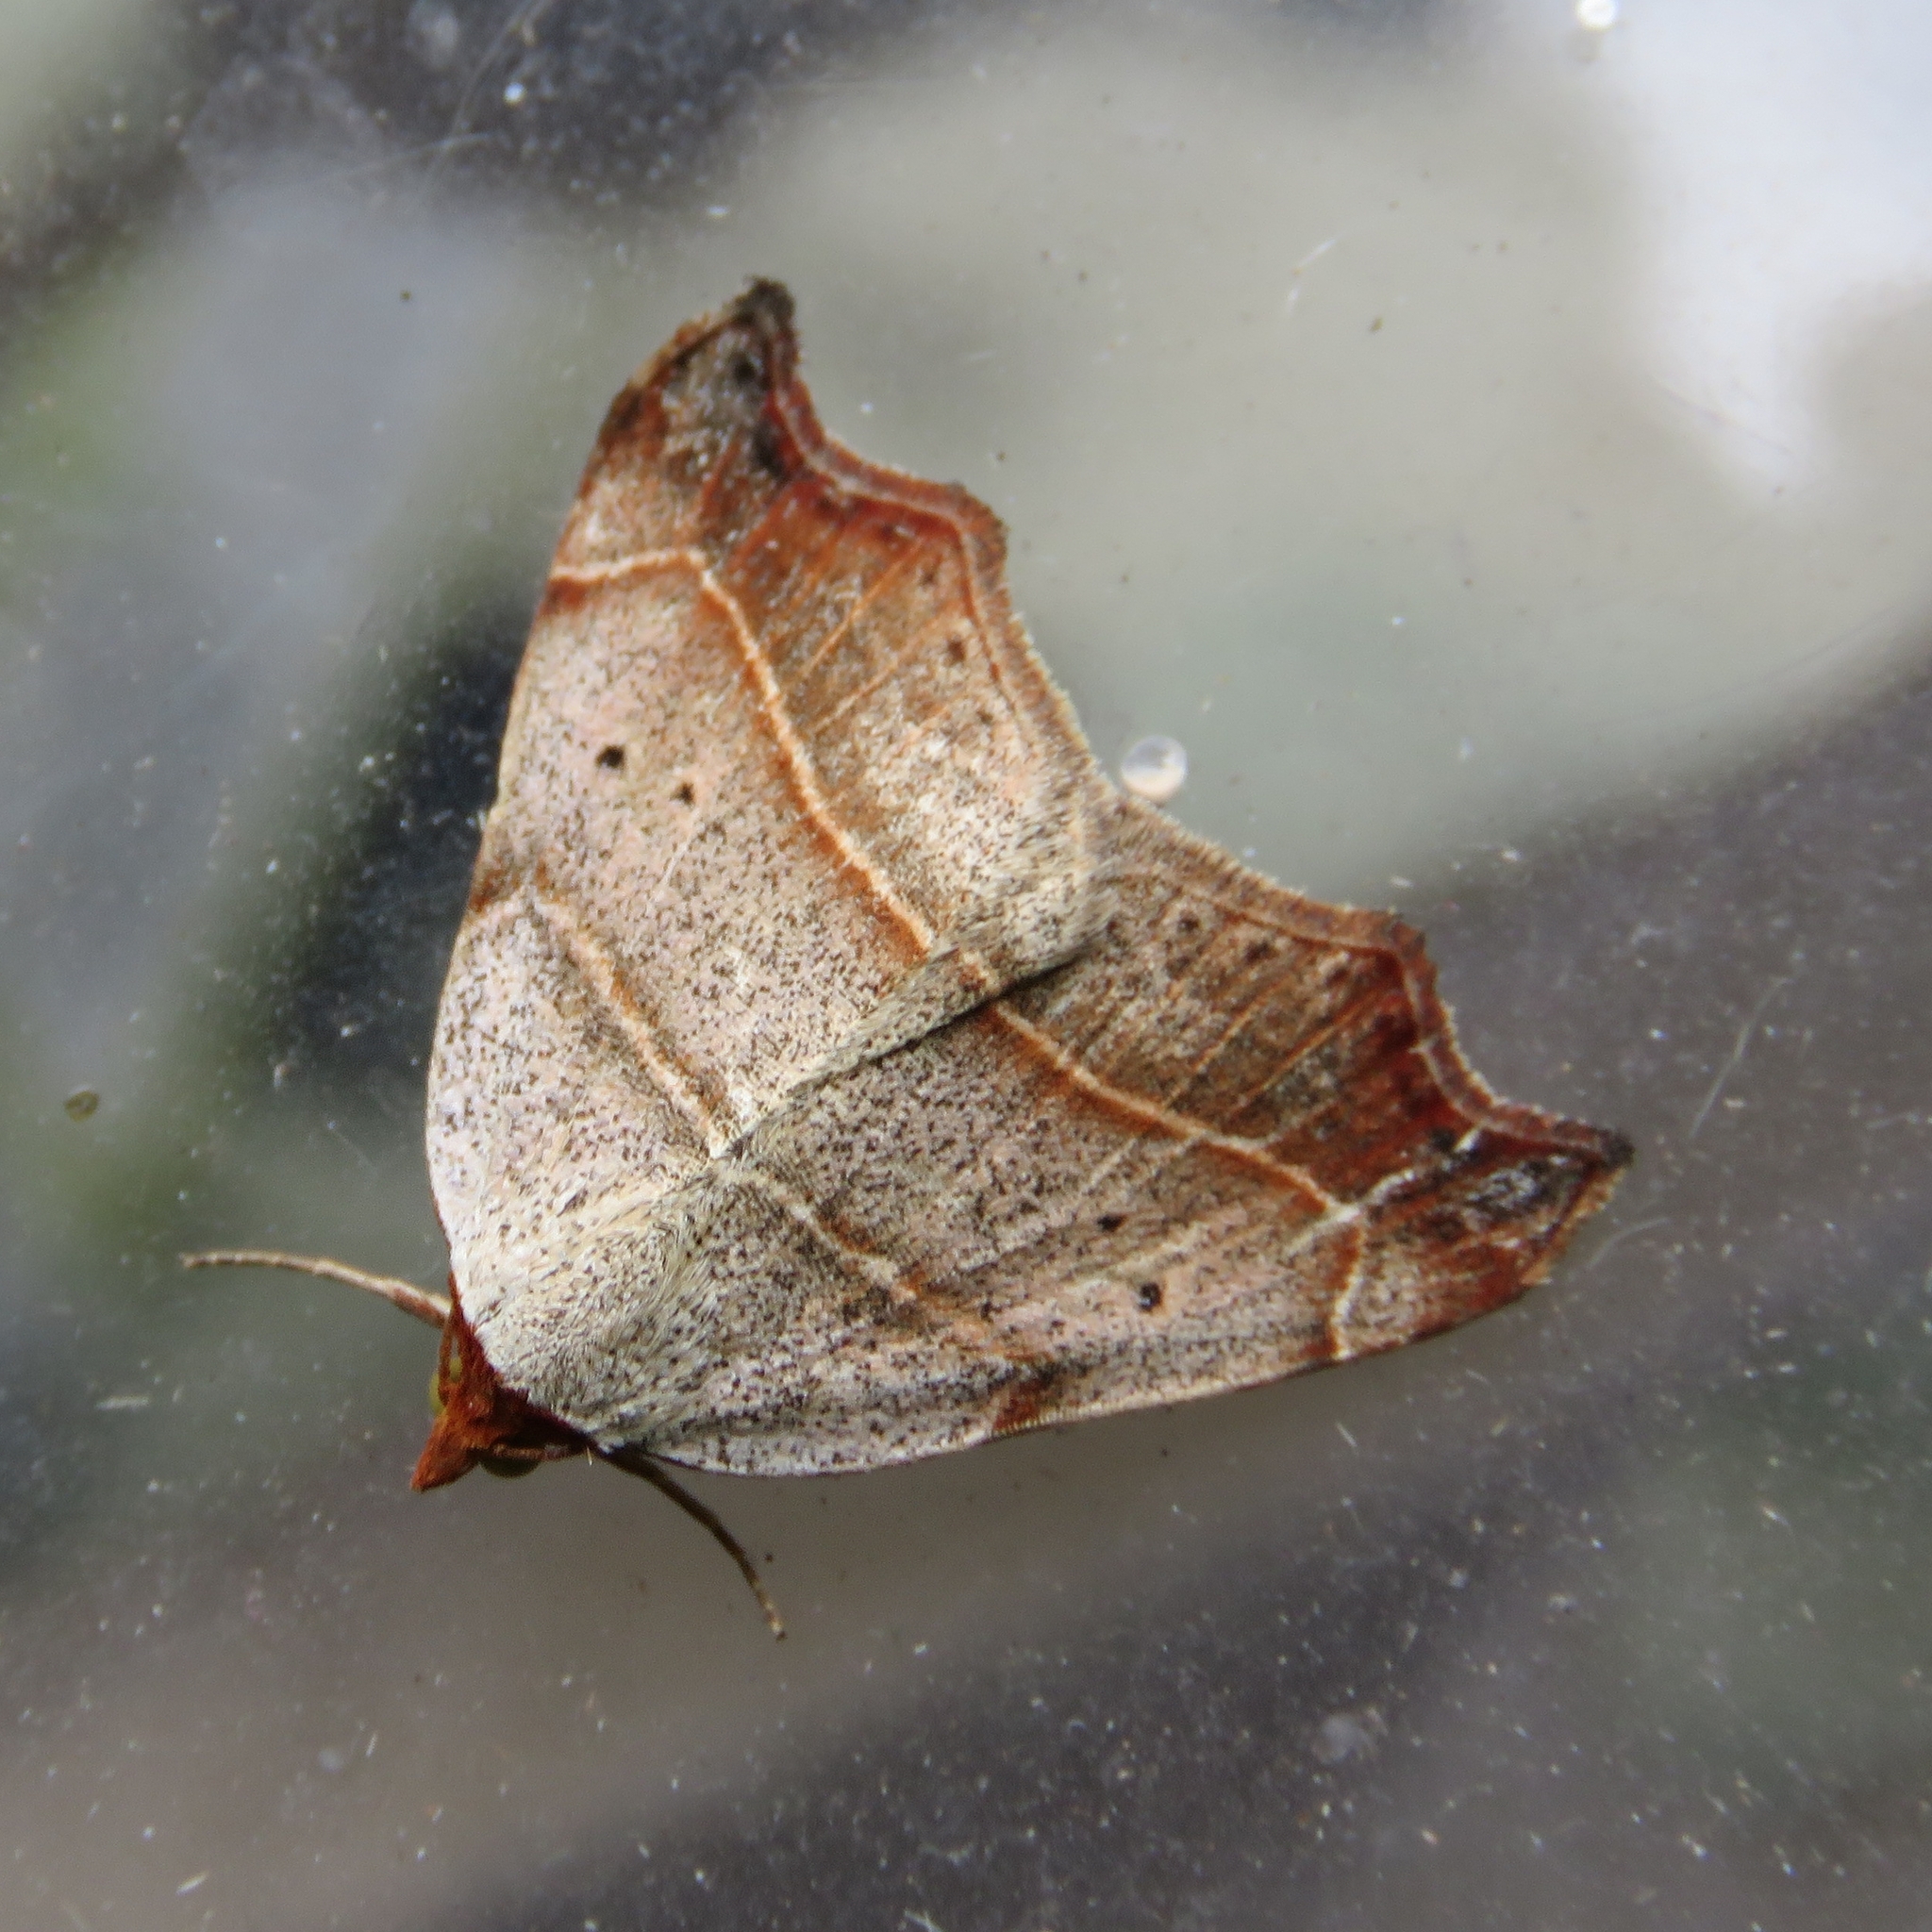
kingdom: Animalia
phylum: Arthropoda
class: Insecta
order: Lepidoptera
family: Erebidae
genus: Laspeyria
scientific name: Laspeyria flexula
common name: Beautiful hook-tip
